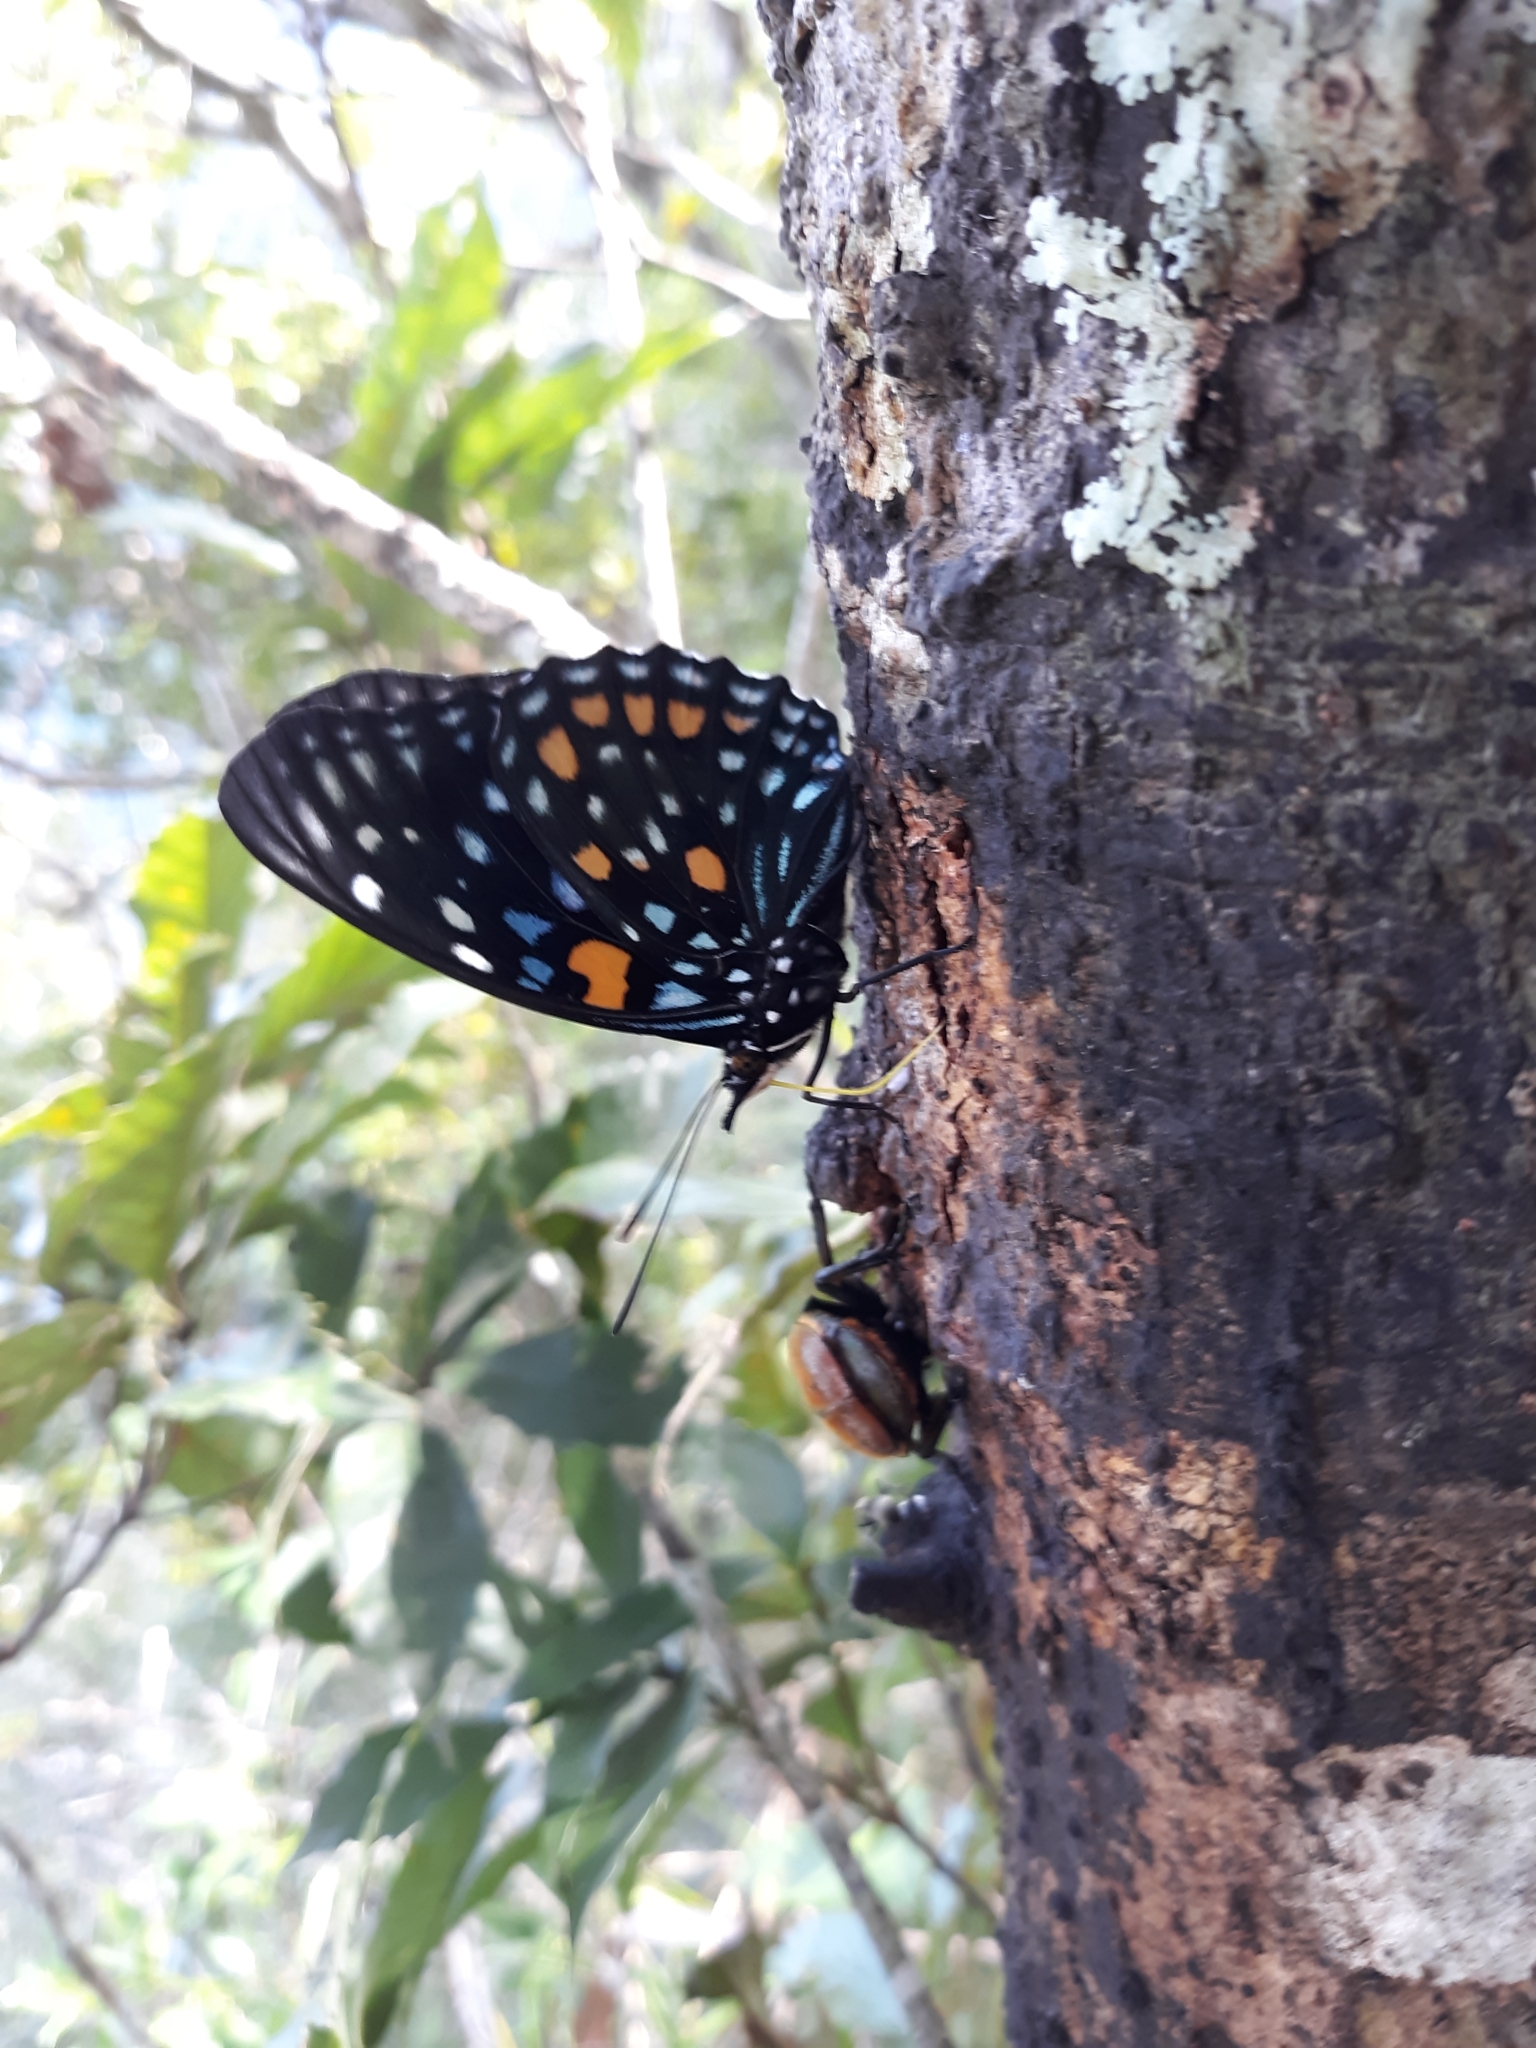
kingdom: Animalia
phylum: Arthropoda
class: Insecta
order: Lepidoptera
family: Nymphalidae
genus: Sephisa
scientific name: Sephisa chandra
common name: Eastern courtier
